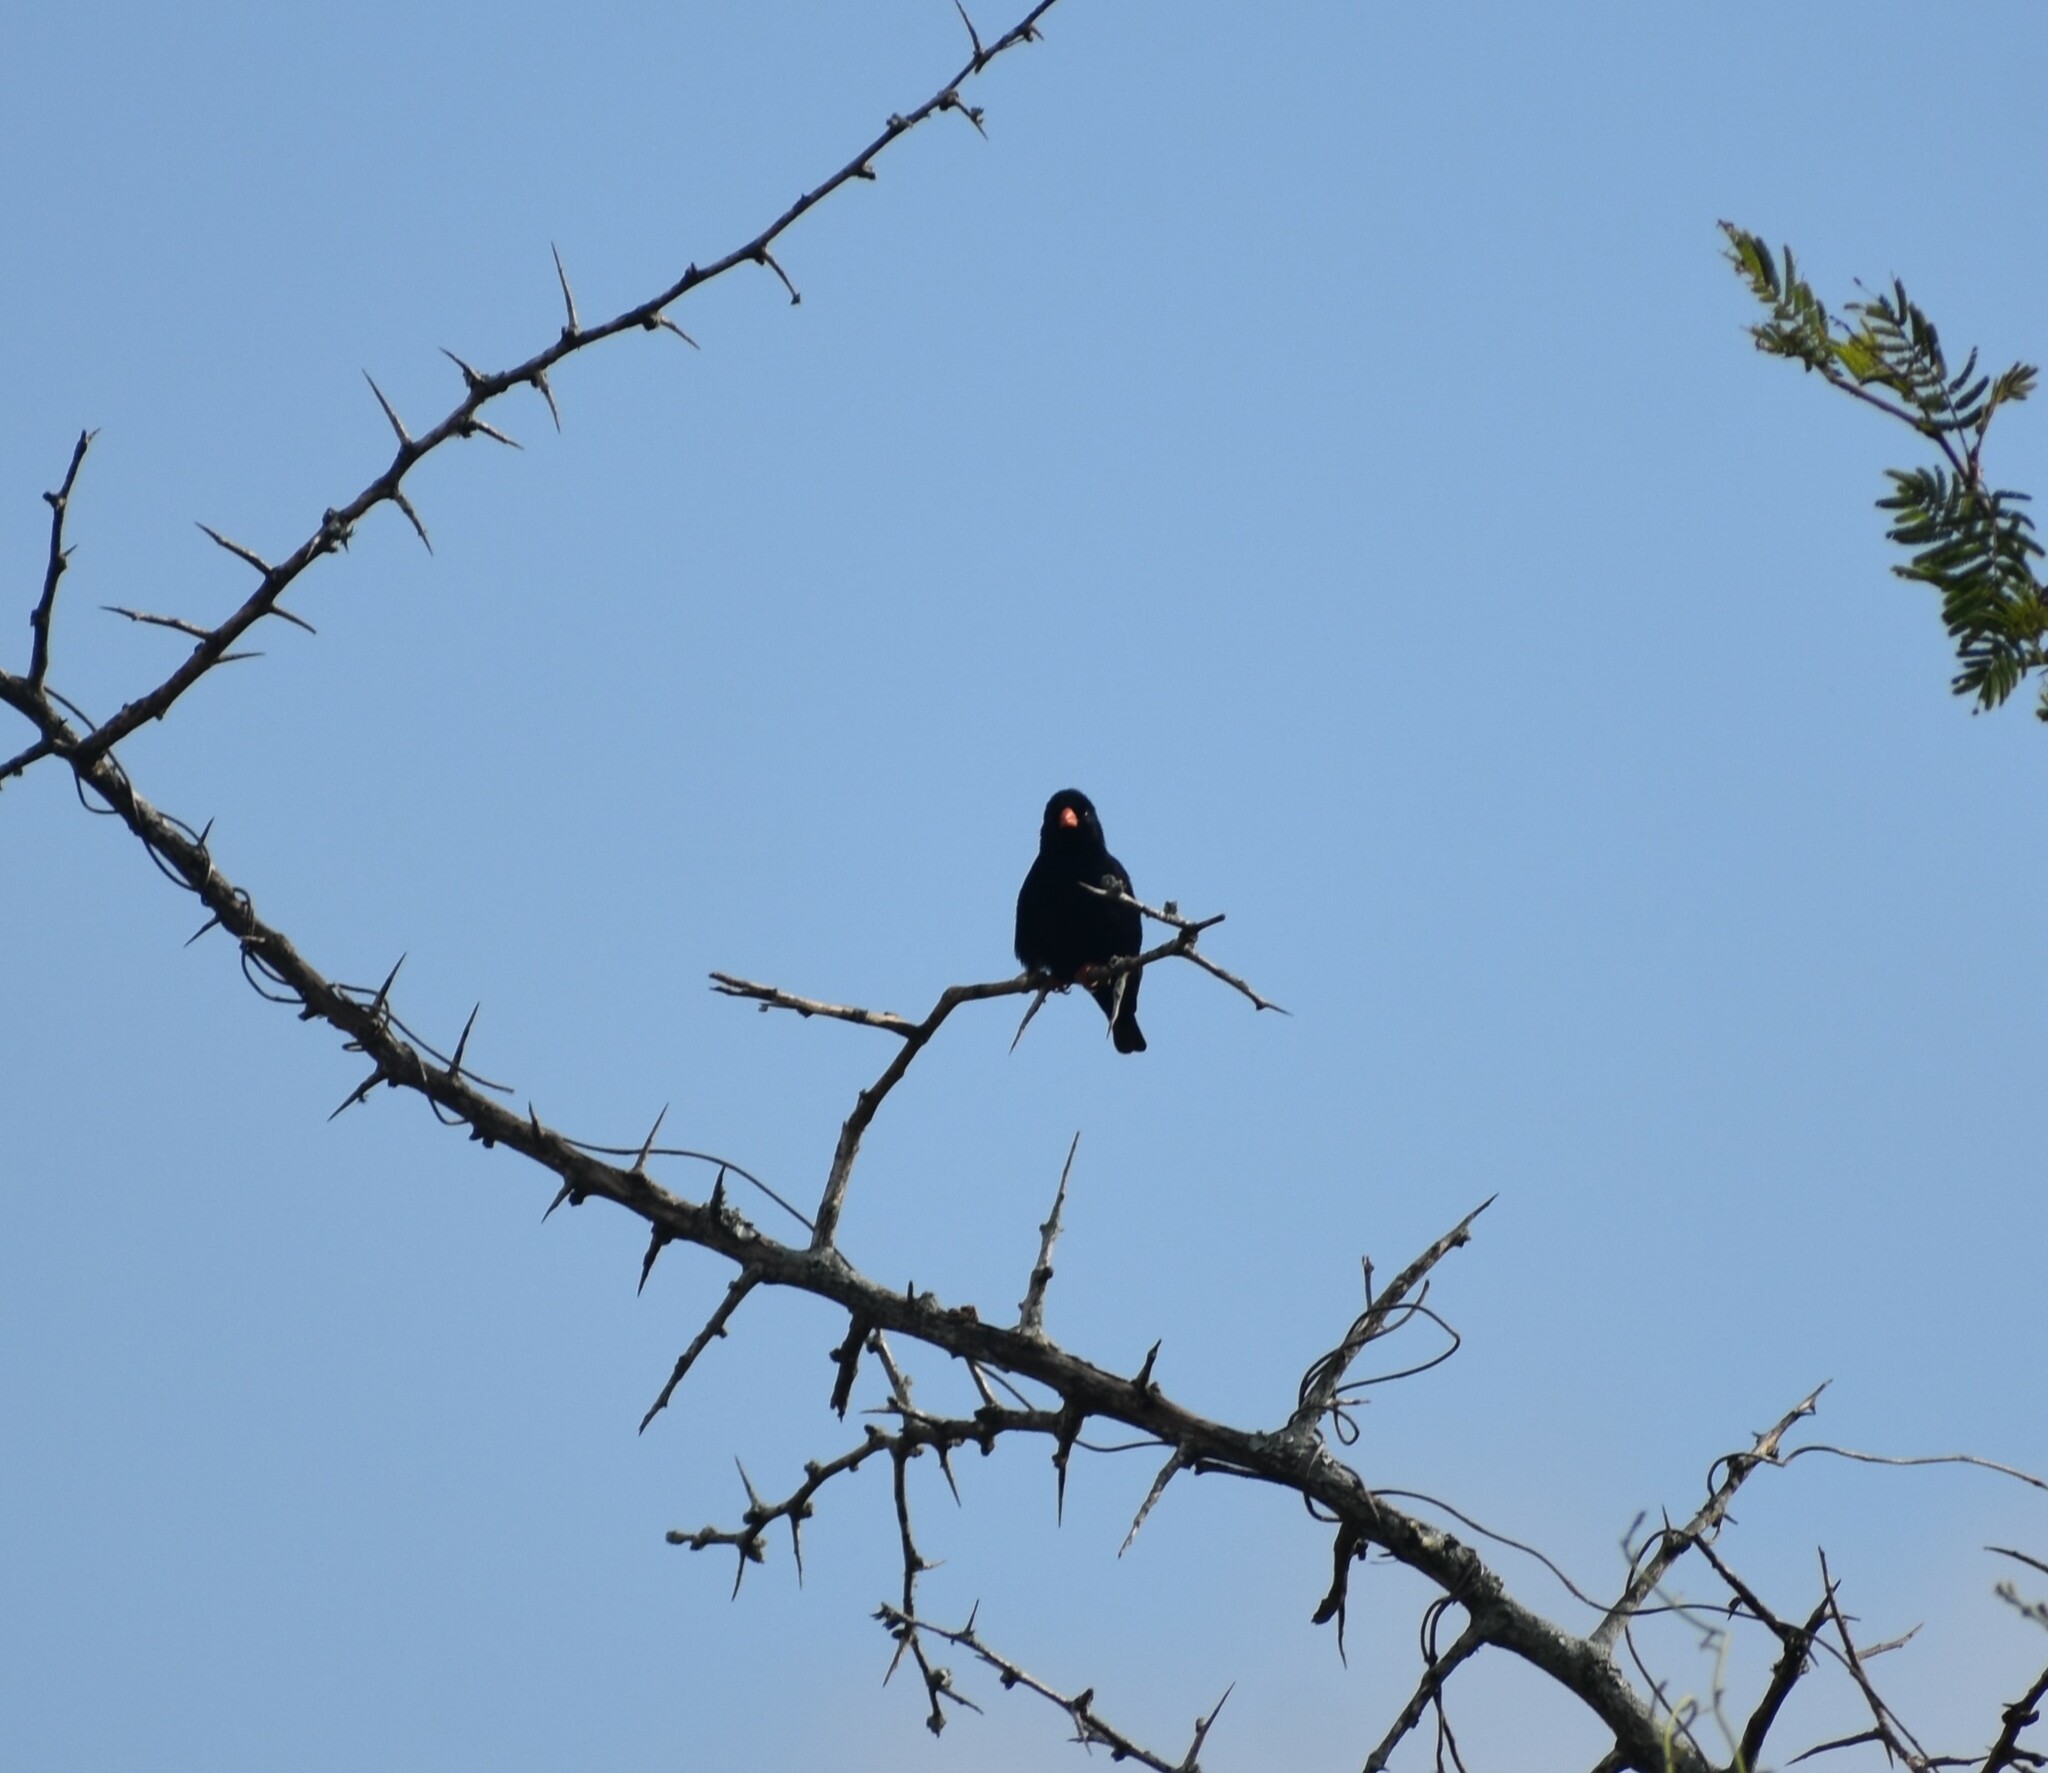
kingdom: Animalia
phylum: Chordata
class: Aves
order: Passeriformes
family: Viduidae
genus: Vidua
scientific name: Vidua chalybeata
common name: Village indigobird
